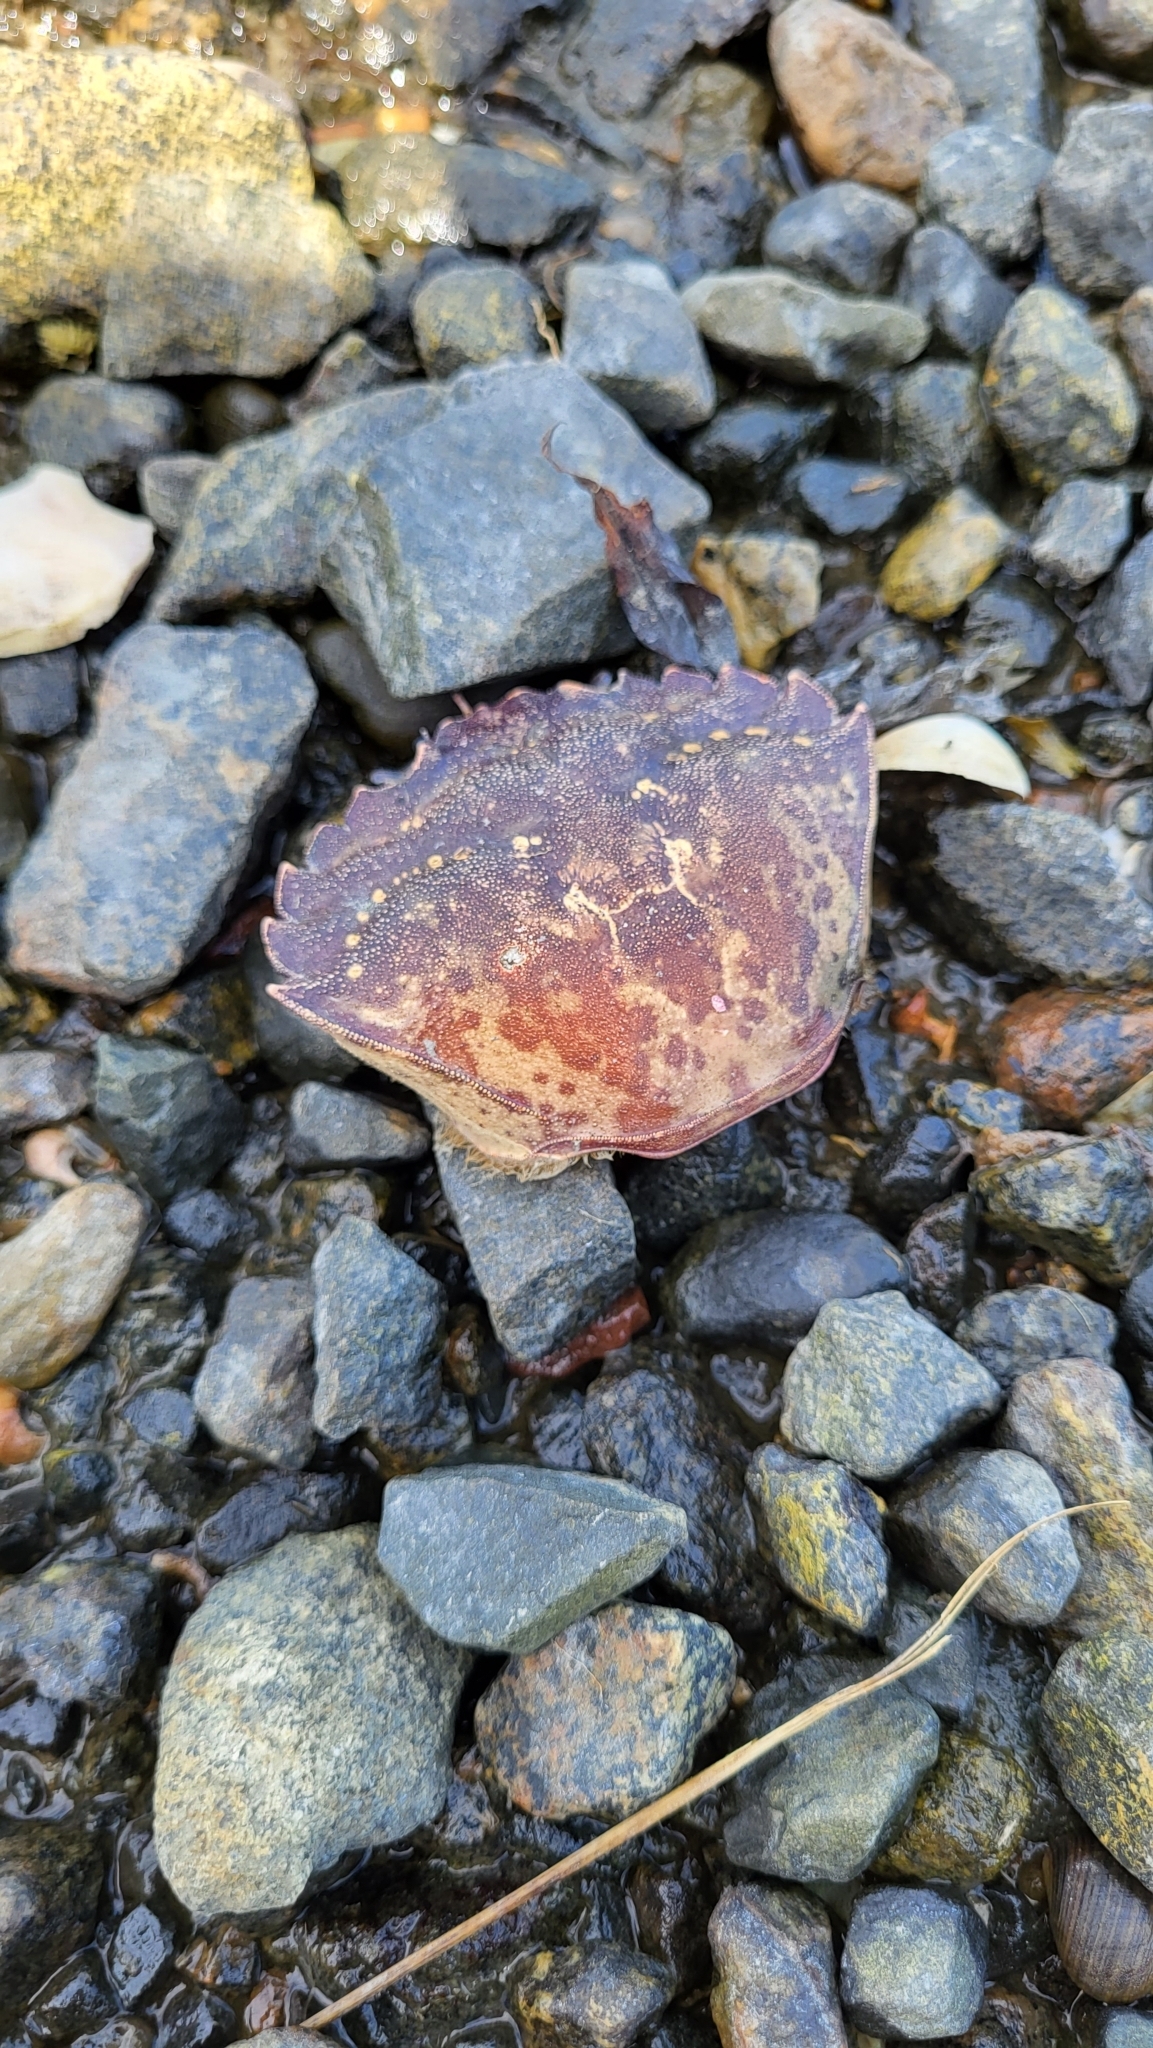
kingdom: Animalia
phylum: Arthropoda
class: Malacostraca
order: Decapoda
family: Carcinidae
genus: Carcinus
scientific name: Carcinus maenas
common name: European green crab
